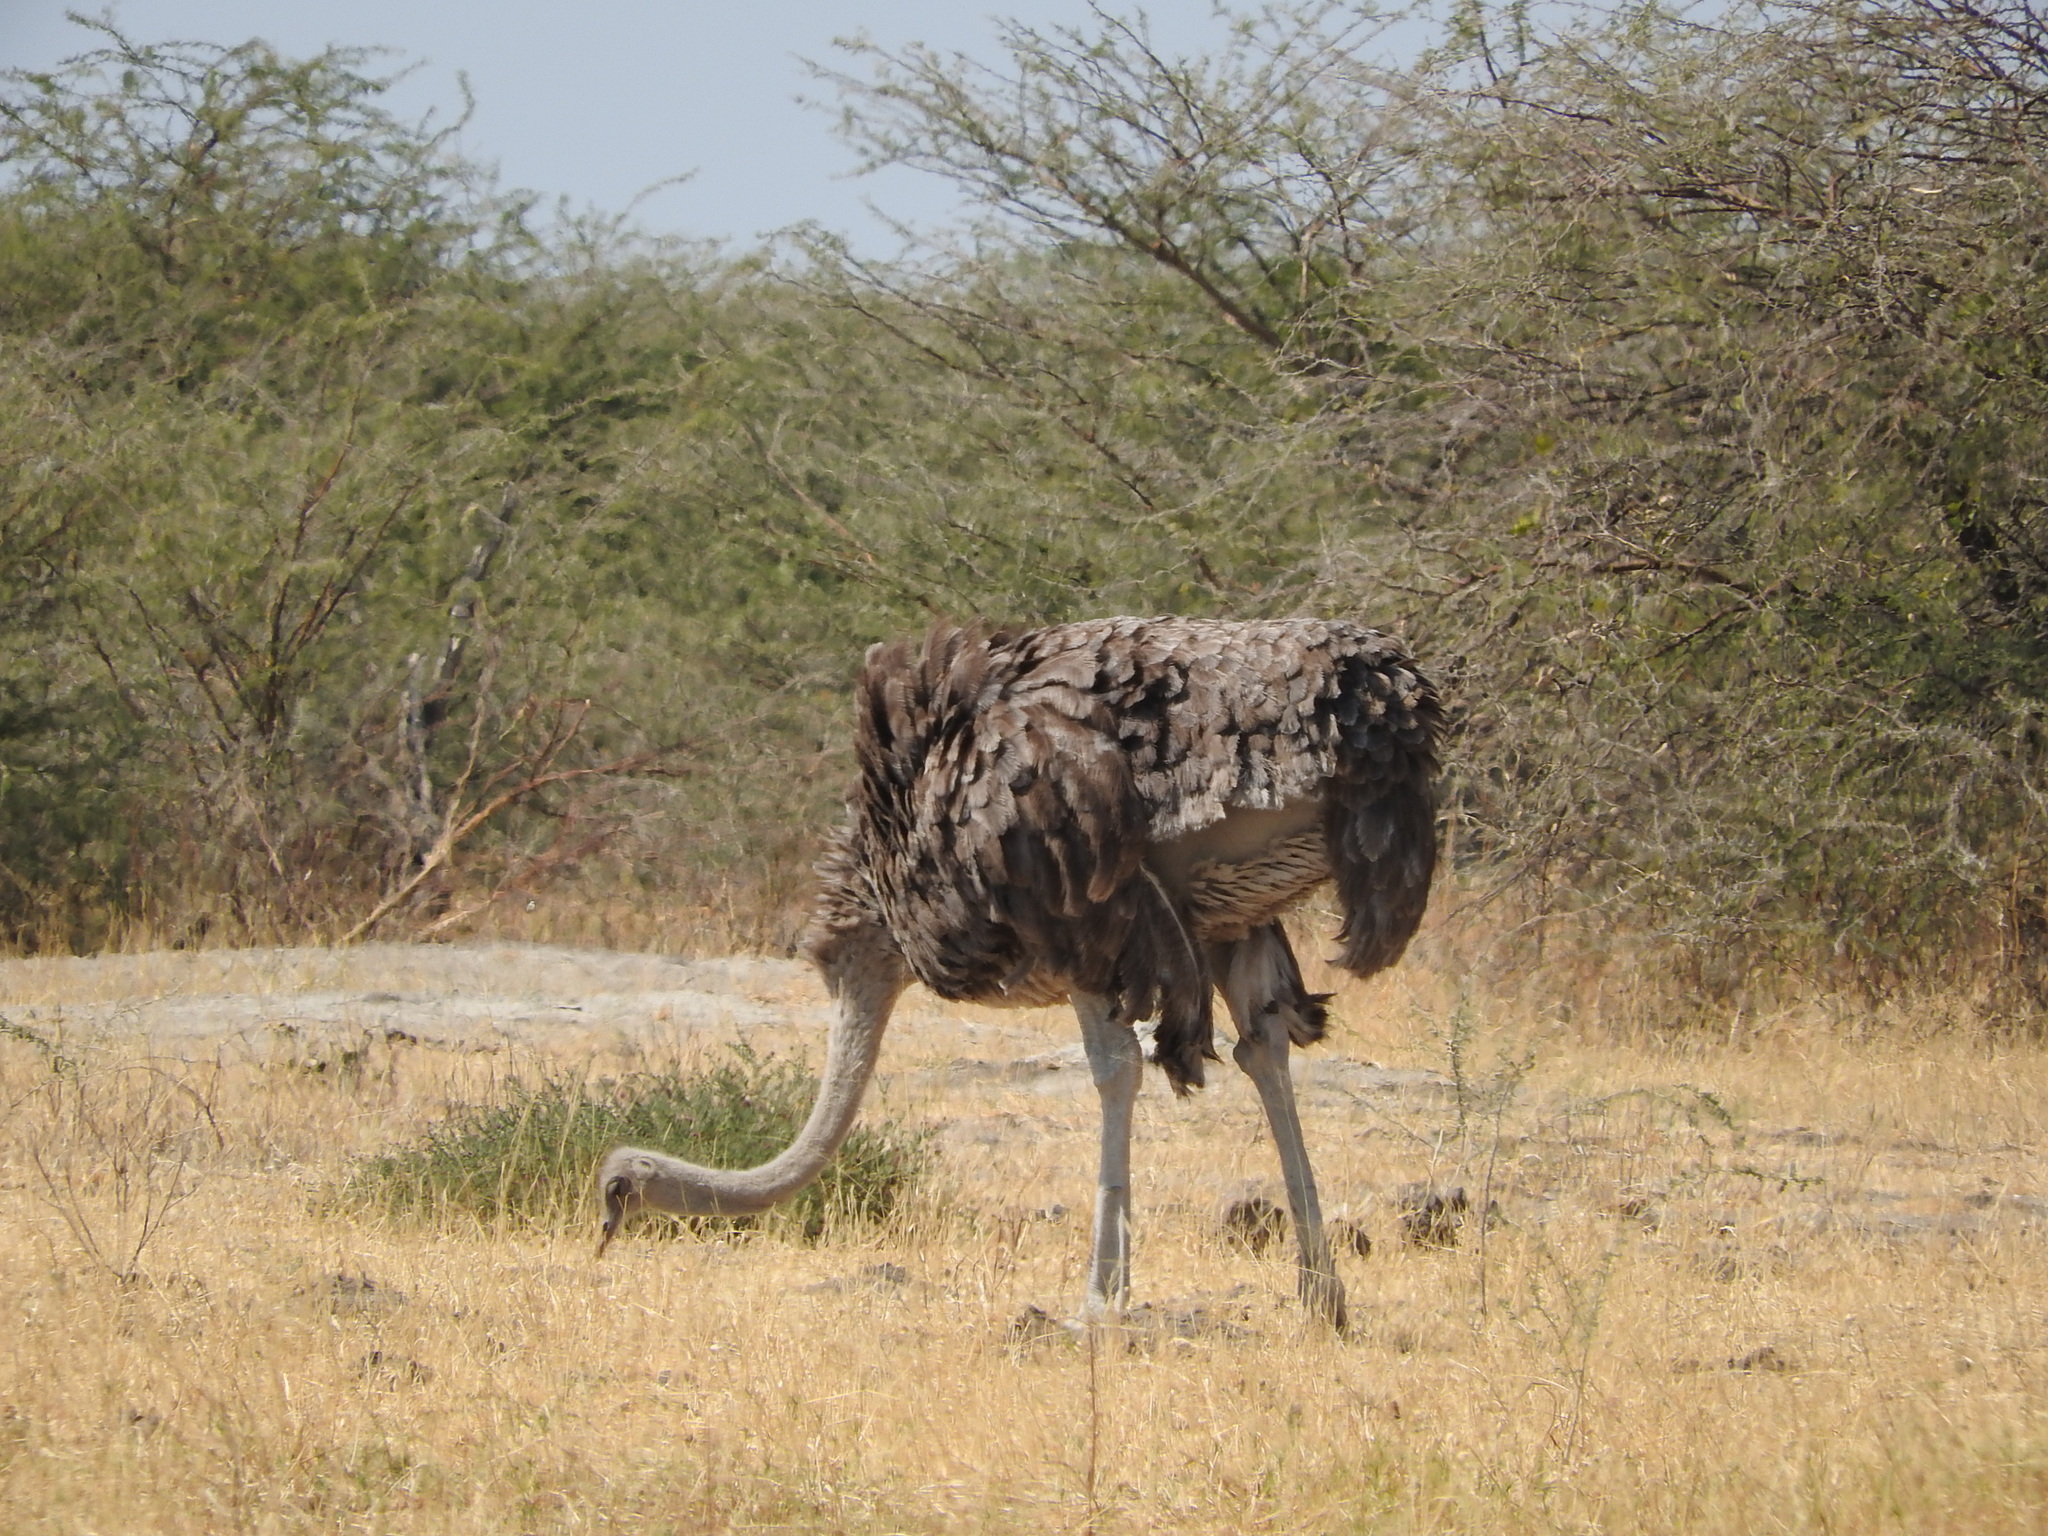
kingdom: Animalia
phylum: Chordata
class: Aves
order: Struthioniformes
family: Struthionidae
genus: Struthio
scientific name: Struthio camelus
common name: Common ostrich
